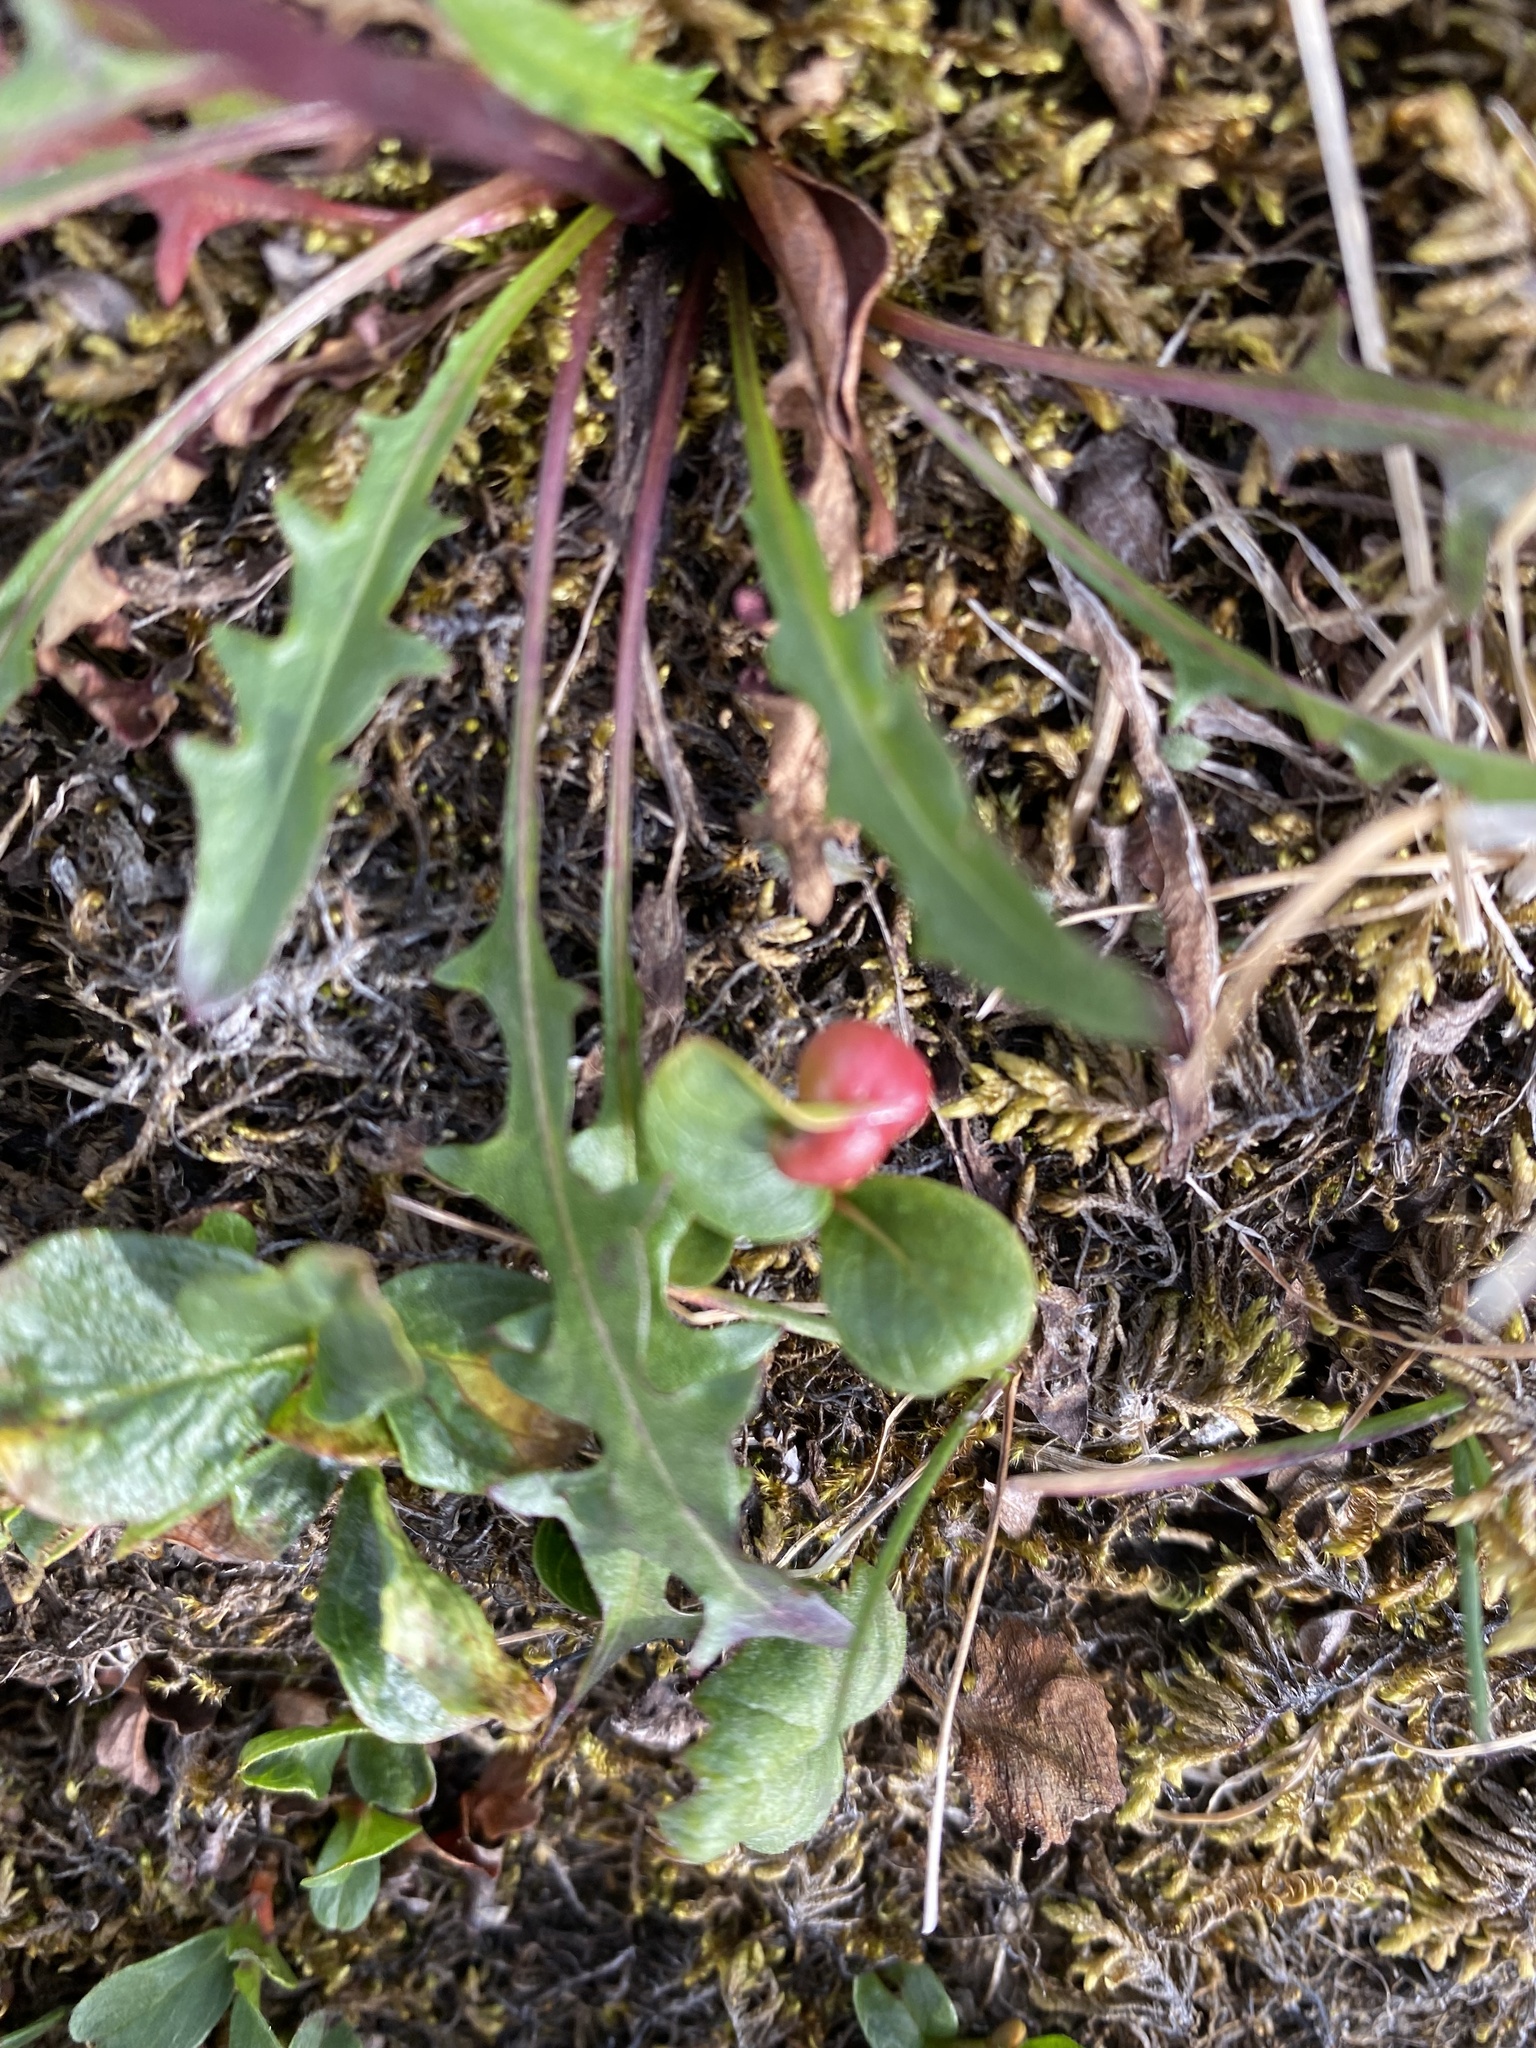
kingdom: Plantae
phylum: Tracheophyta
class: Magnoliopsida
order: Asterales
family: Asteraceae
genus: Taraxacum
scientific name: Taraxacum macilentum
